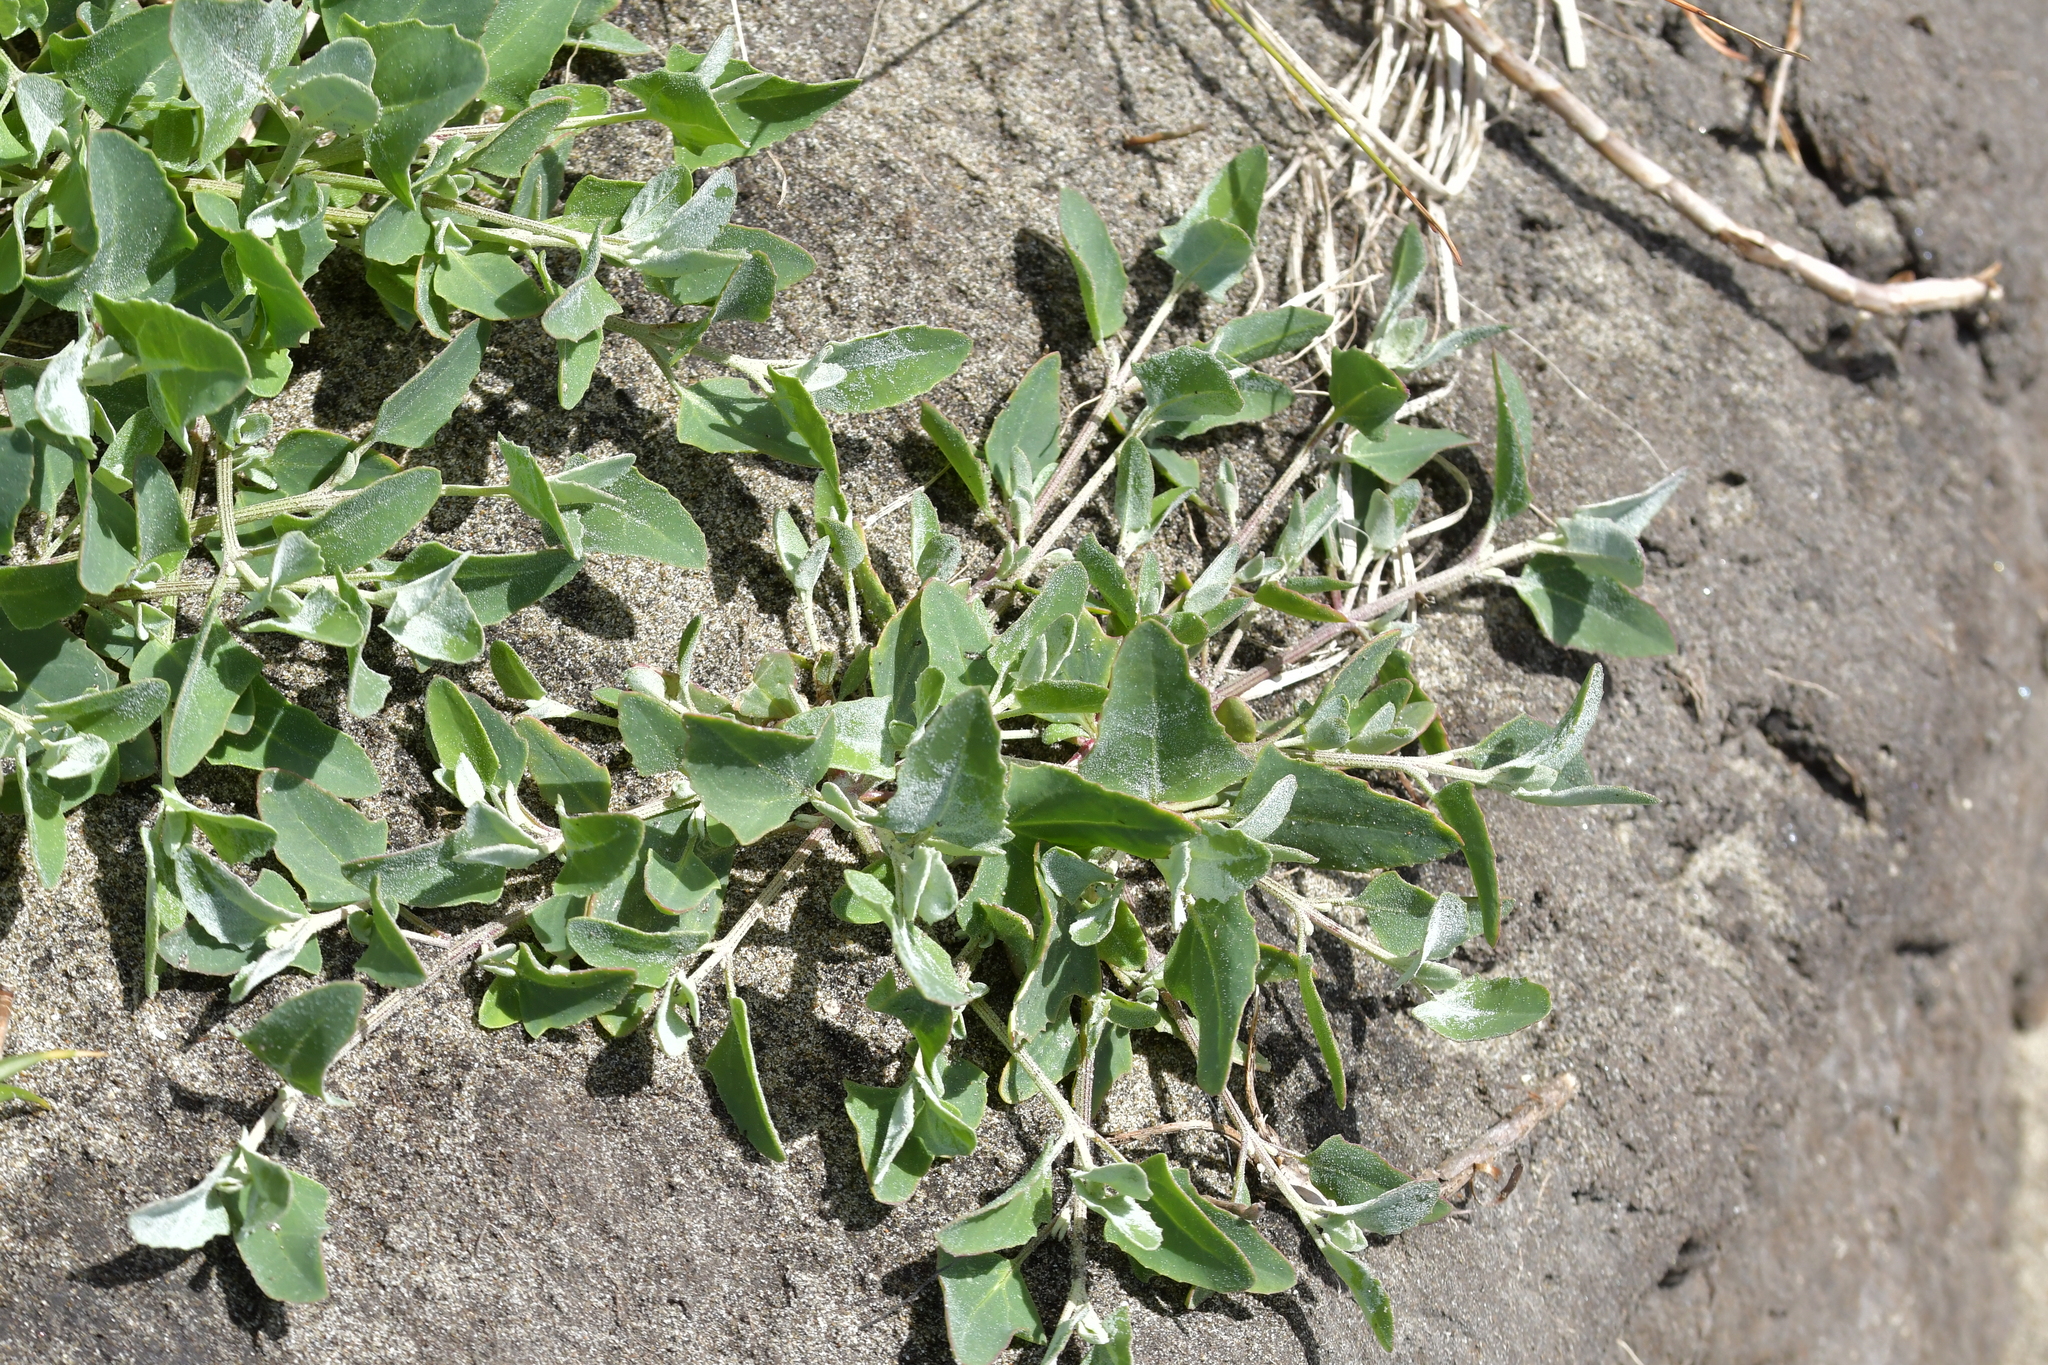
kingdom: Plantae
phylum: Tracheophyta
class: Magnoliopsida
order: Caryophyllales
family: Amaranthaceae
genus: Atriplex
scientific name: Atriplex prostrata
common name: Spear-leaved orache
